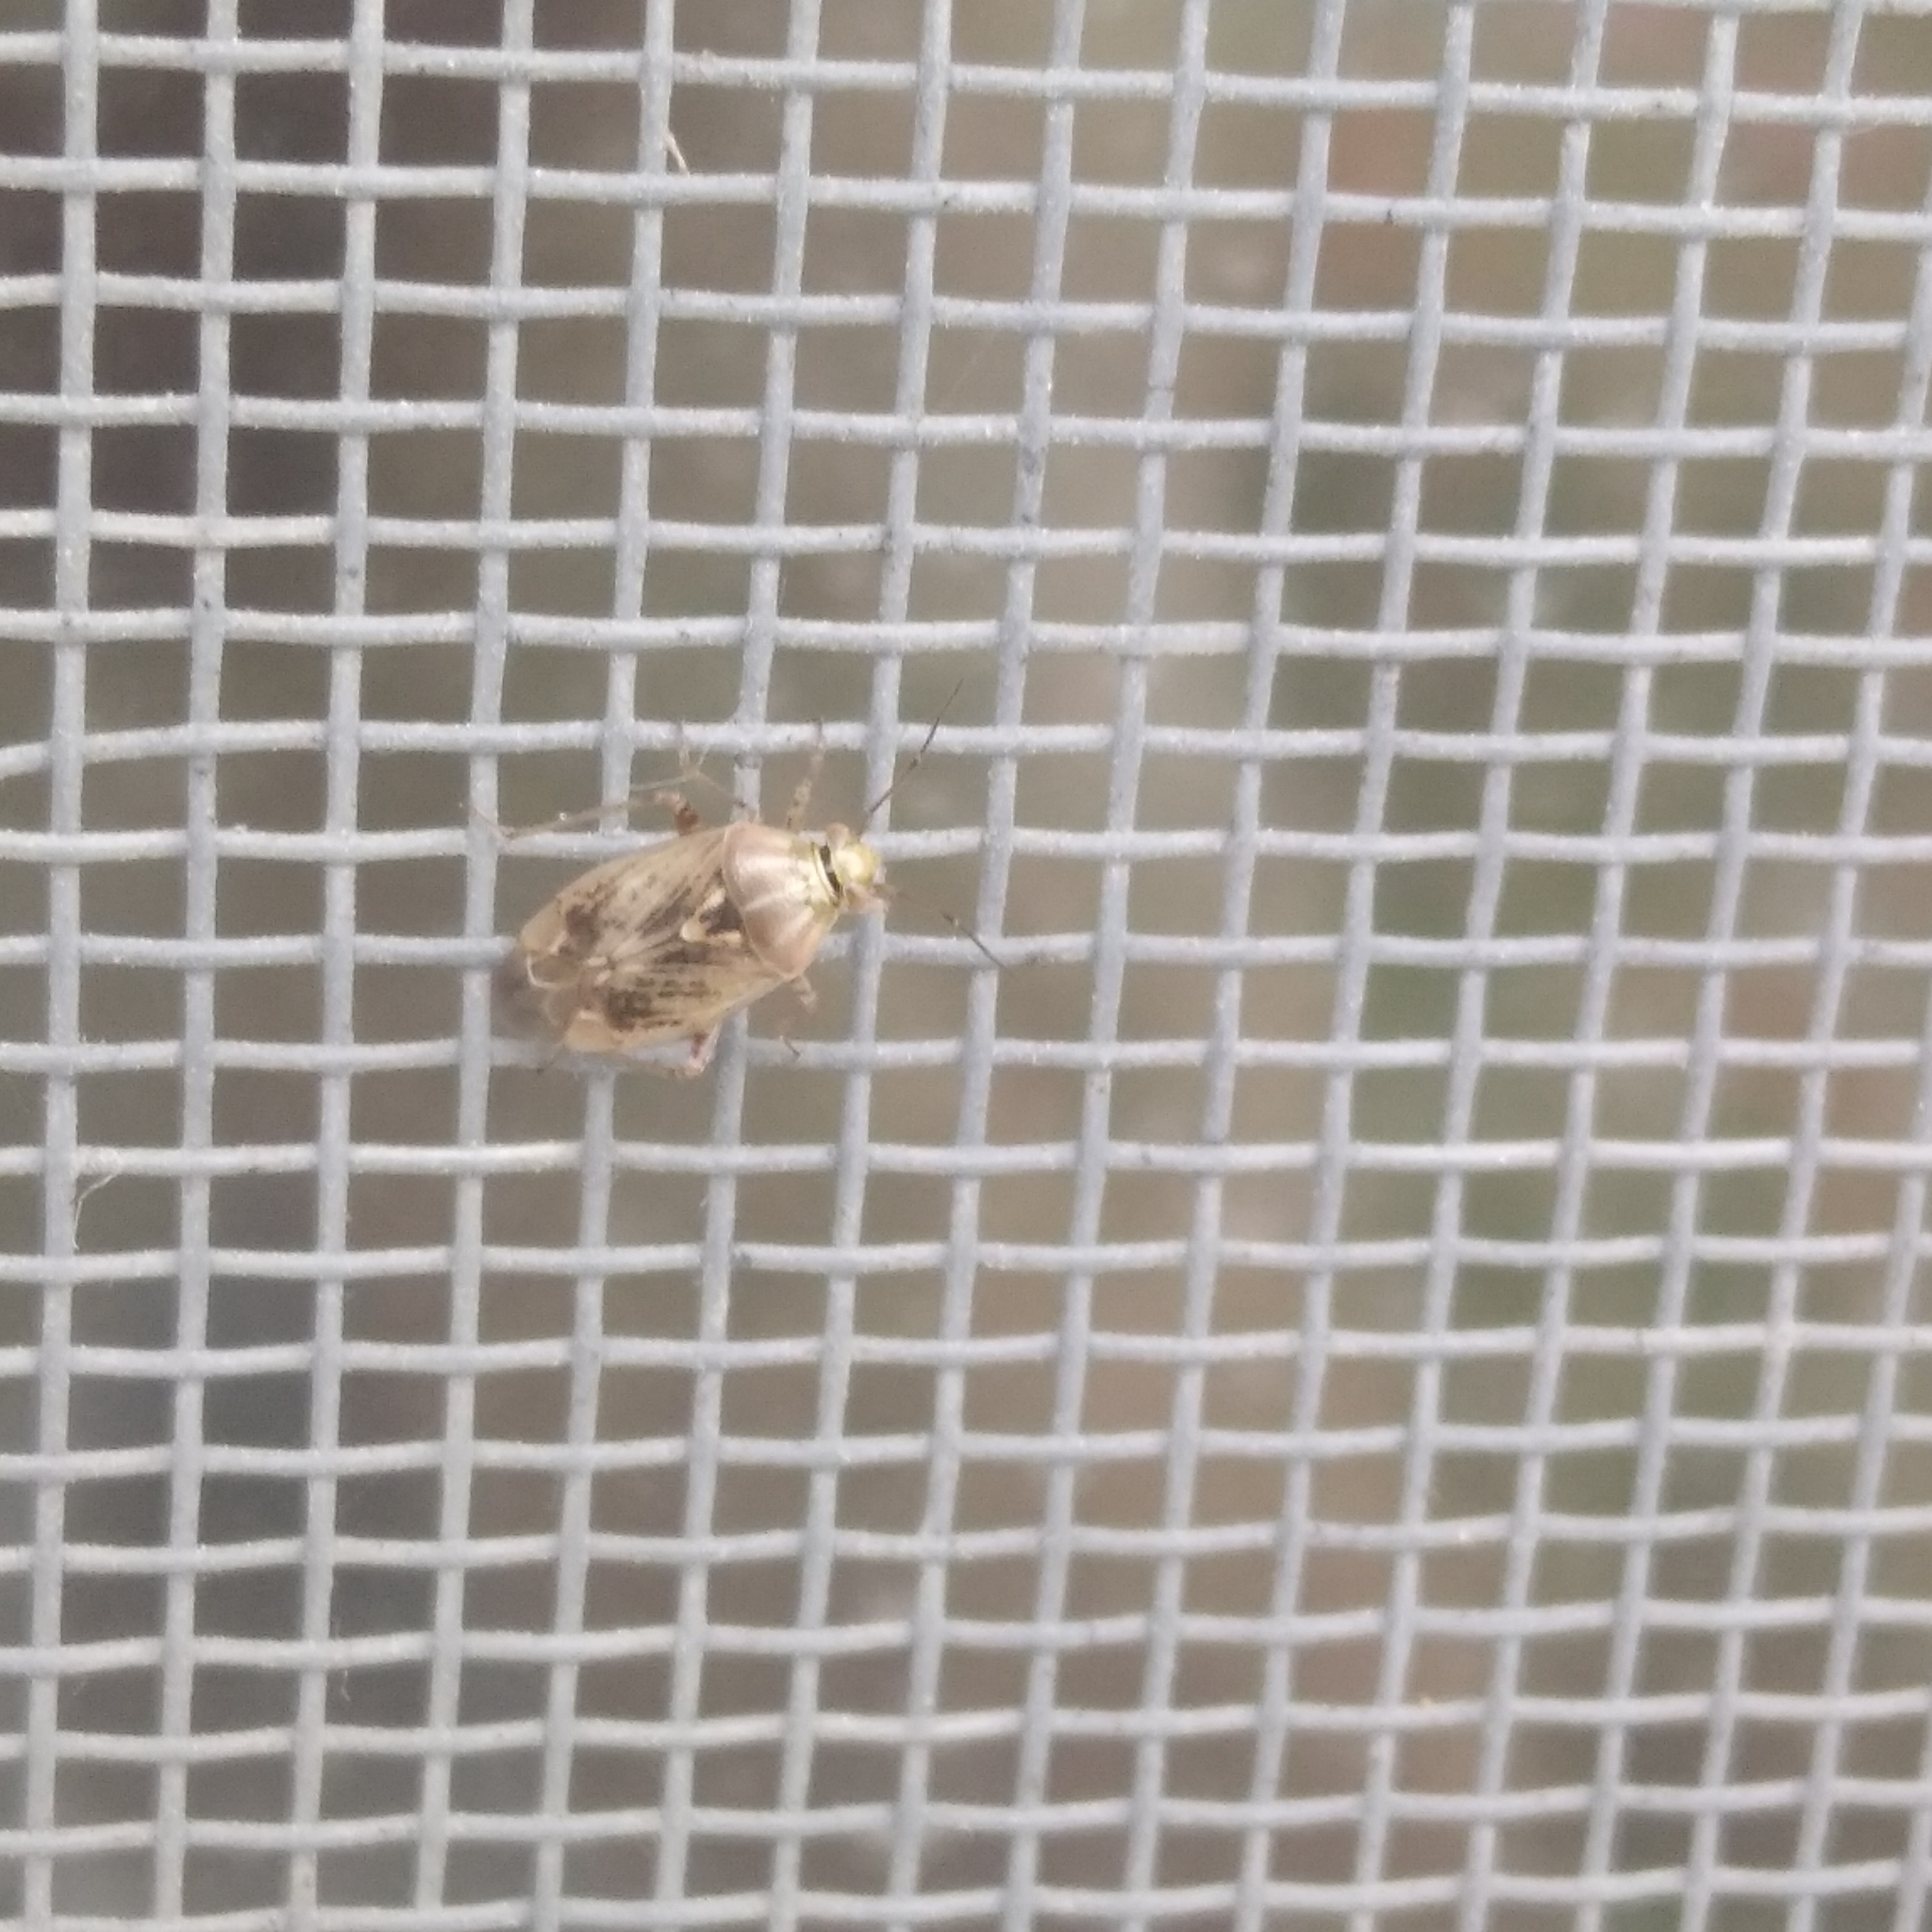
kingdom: Animalia
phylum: Arthropoda
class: Insecta
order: Hemiptera
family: Miridae
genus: Lygus
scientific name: Lygus rugulipennis
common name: European tarnished plant bug
